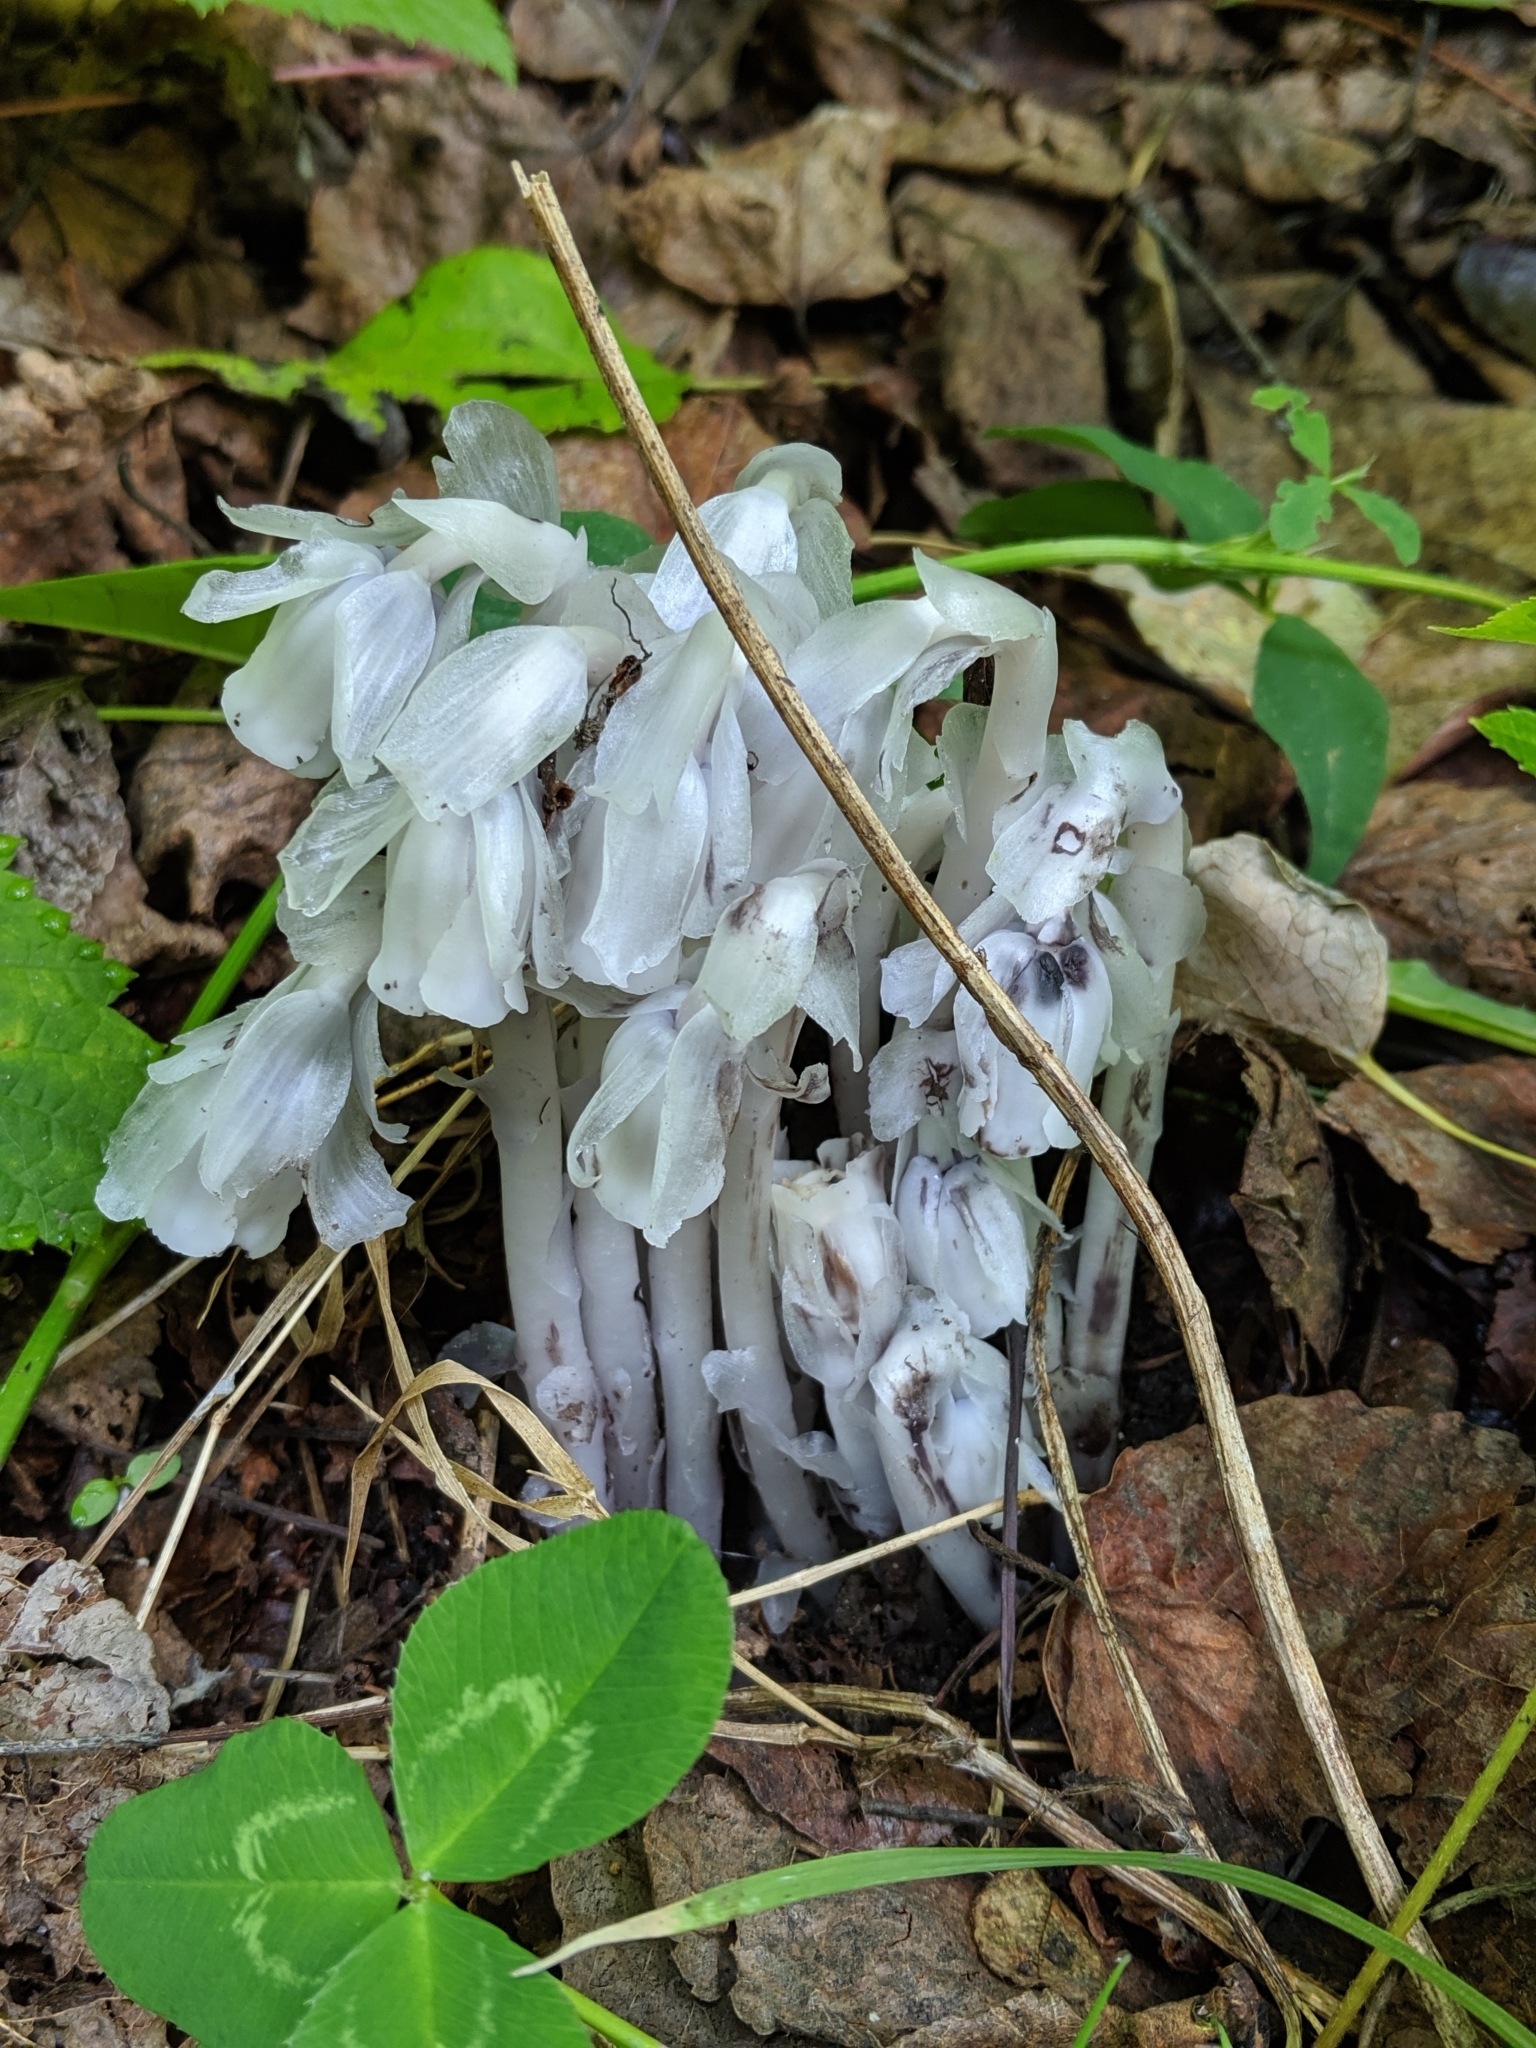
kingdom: Plantae
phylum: Tracheophyta
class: Magnoliopsida
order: Ericales
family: Ericaceae
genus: Monotropa
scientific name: Monotropa uniflora
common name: Convulsion root
